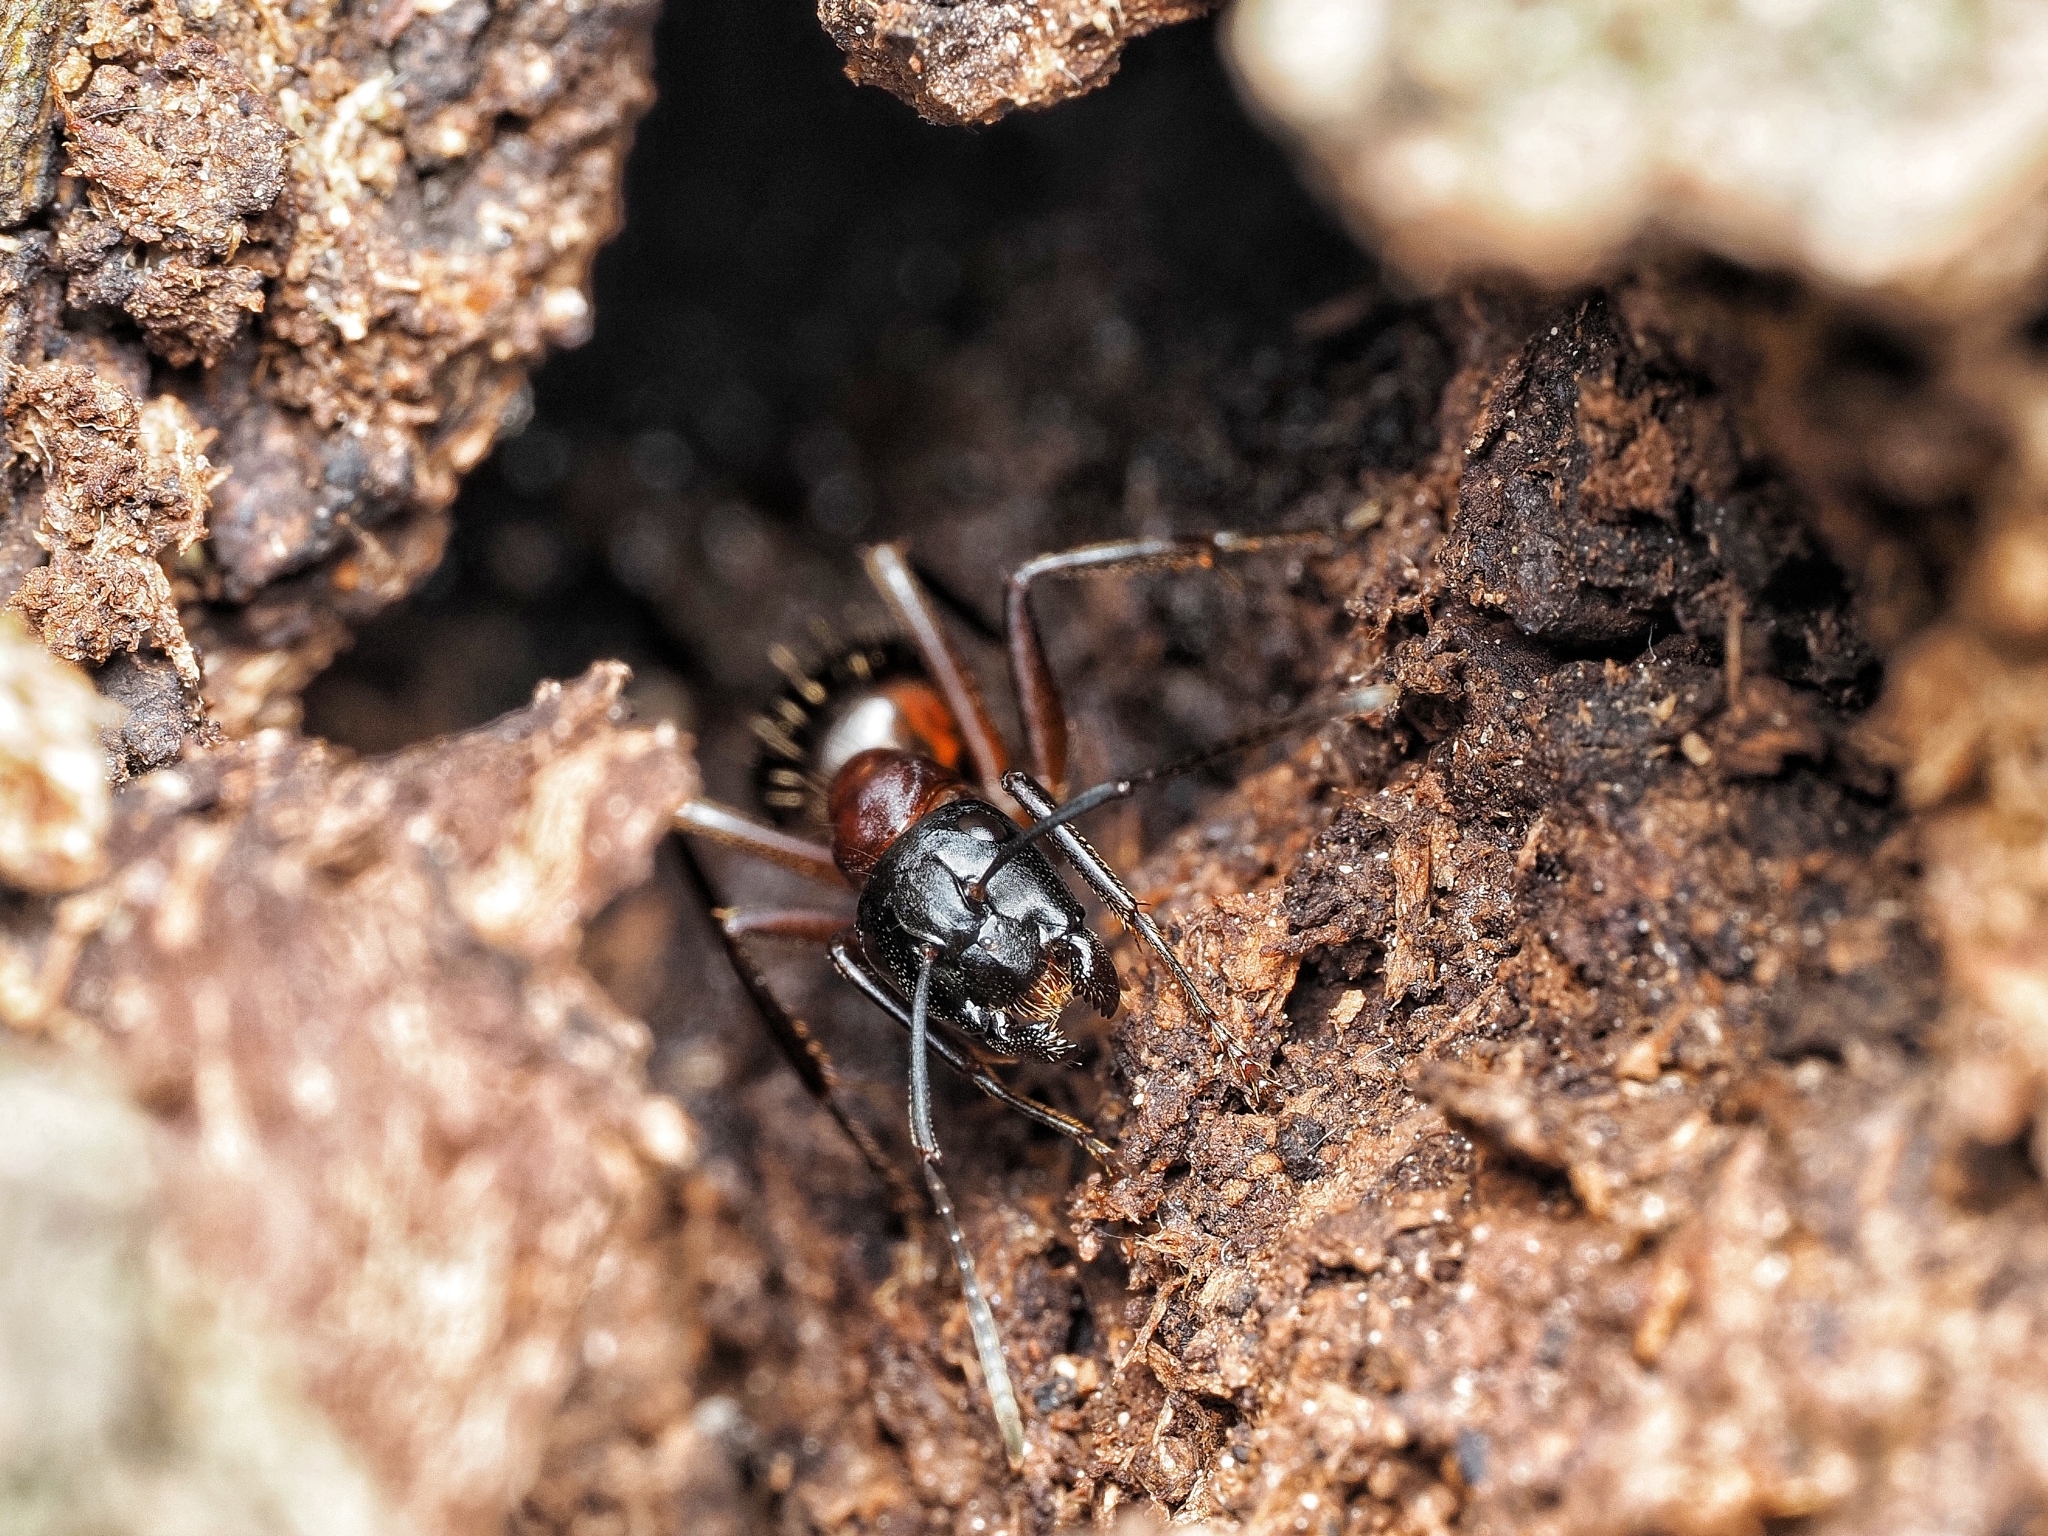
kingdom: Animalia
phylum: Arthropoda
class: Insecta
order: Hymenoptera
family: Formicidae
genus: Camponotus
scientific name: Camponotus ligniperdus
